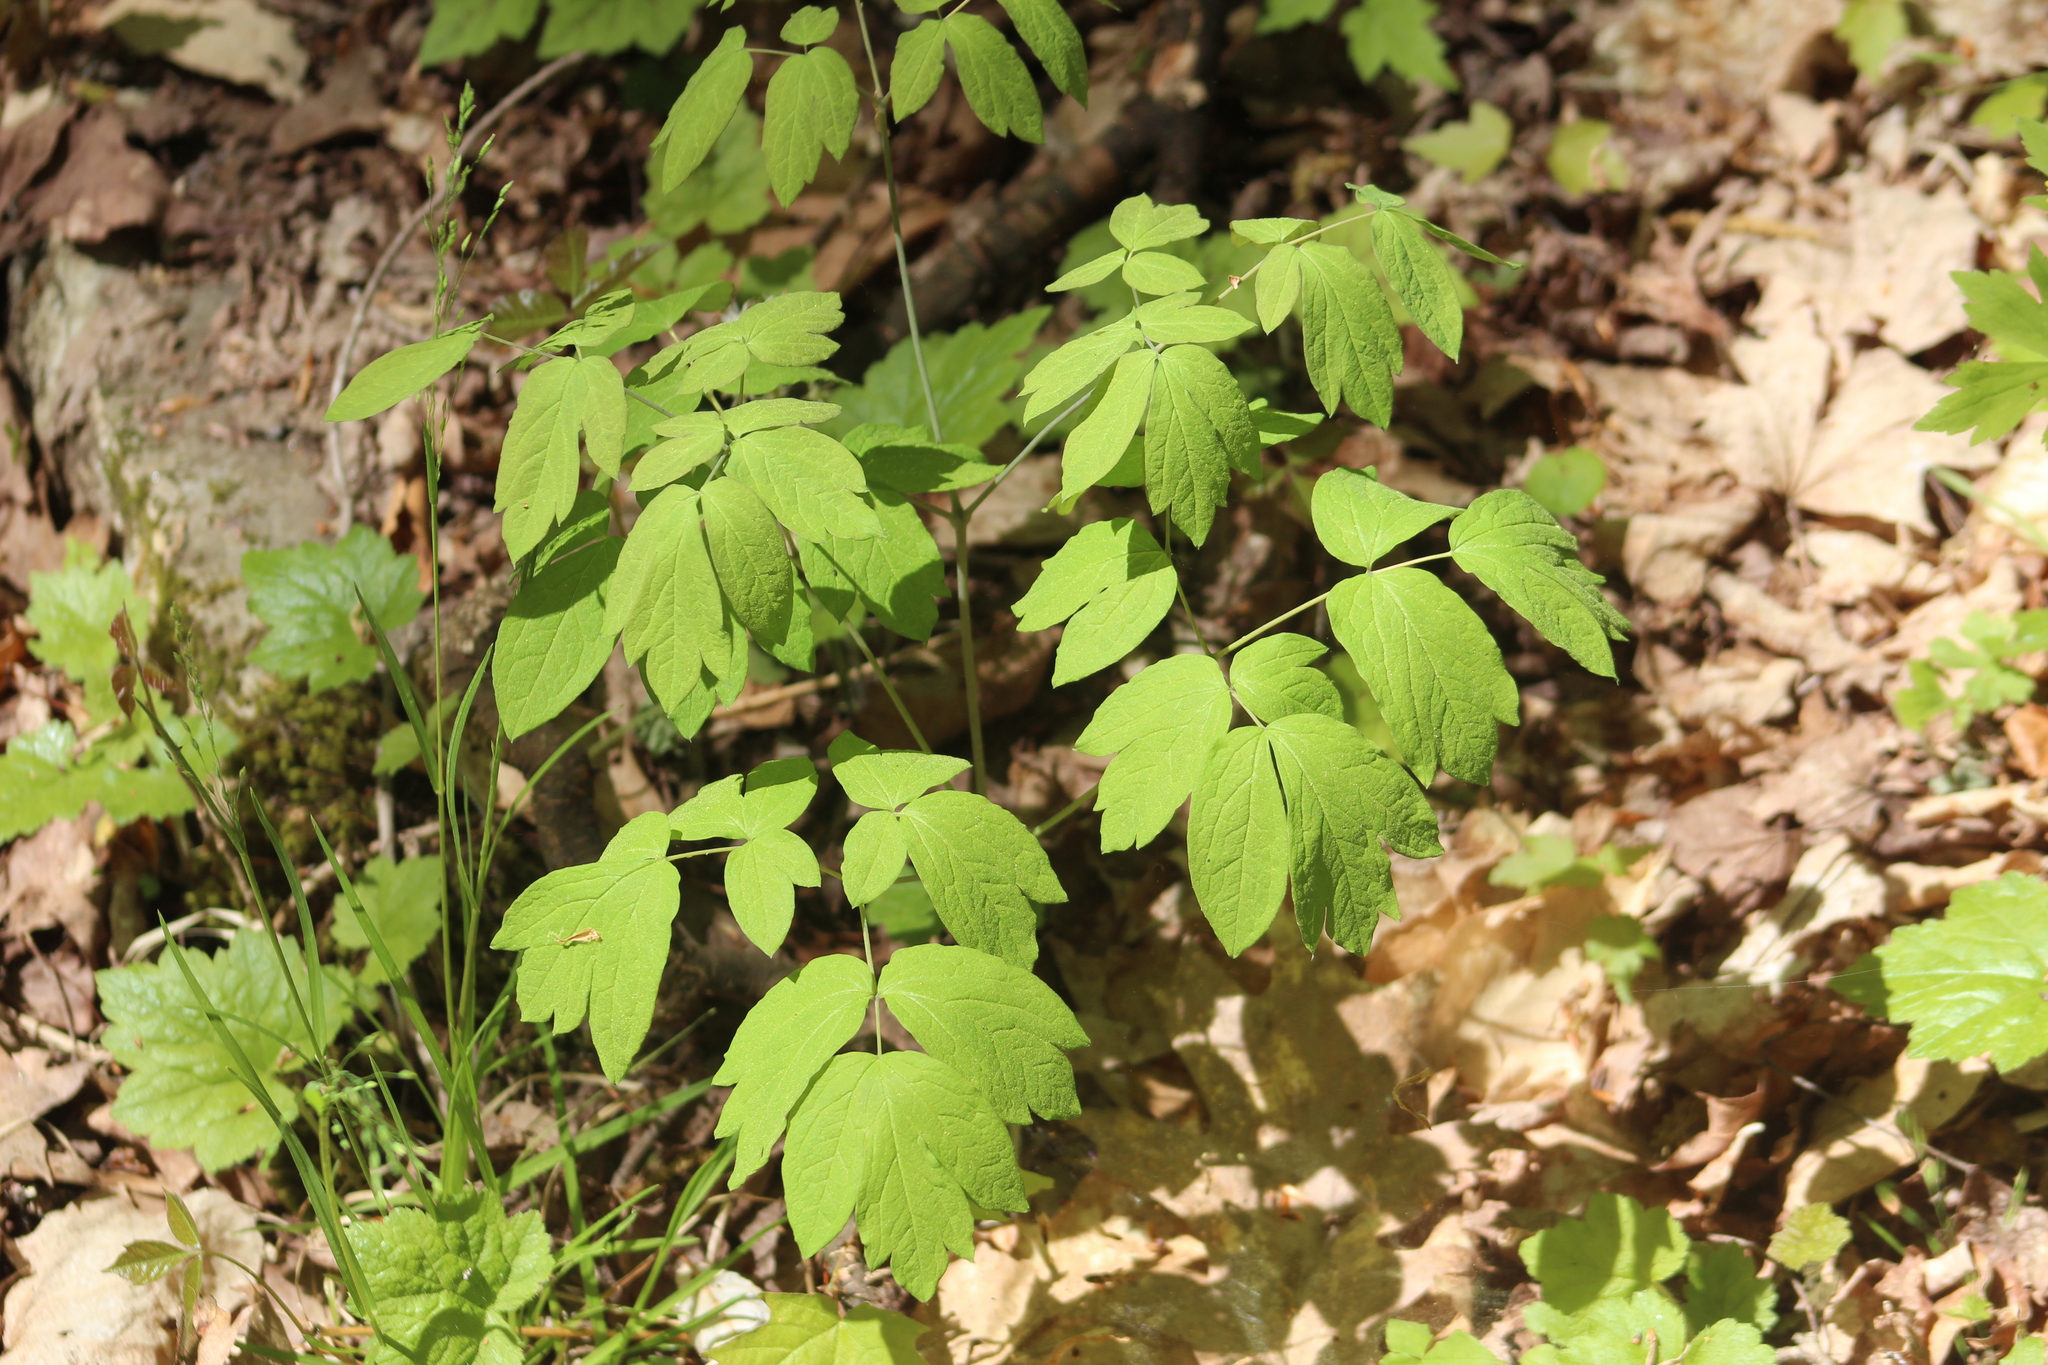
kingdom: Plantae
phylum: Tracheophyta
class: Magnoliopsida
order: Ranunculales
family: Berberidaceae
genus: Caulophyllum
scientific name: Caulophyllum thalictroides
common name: Blue cohosh
